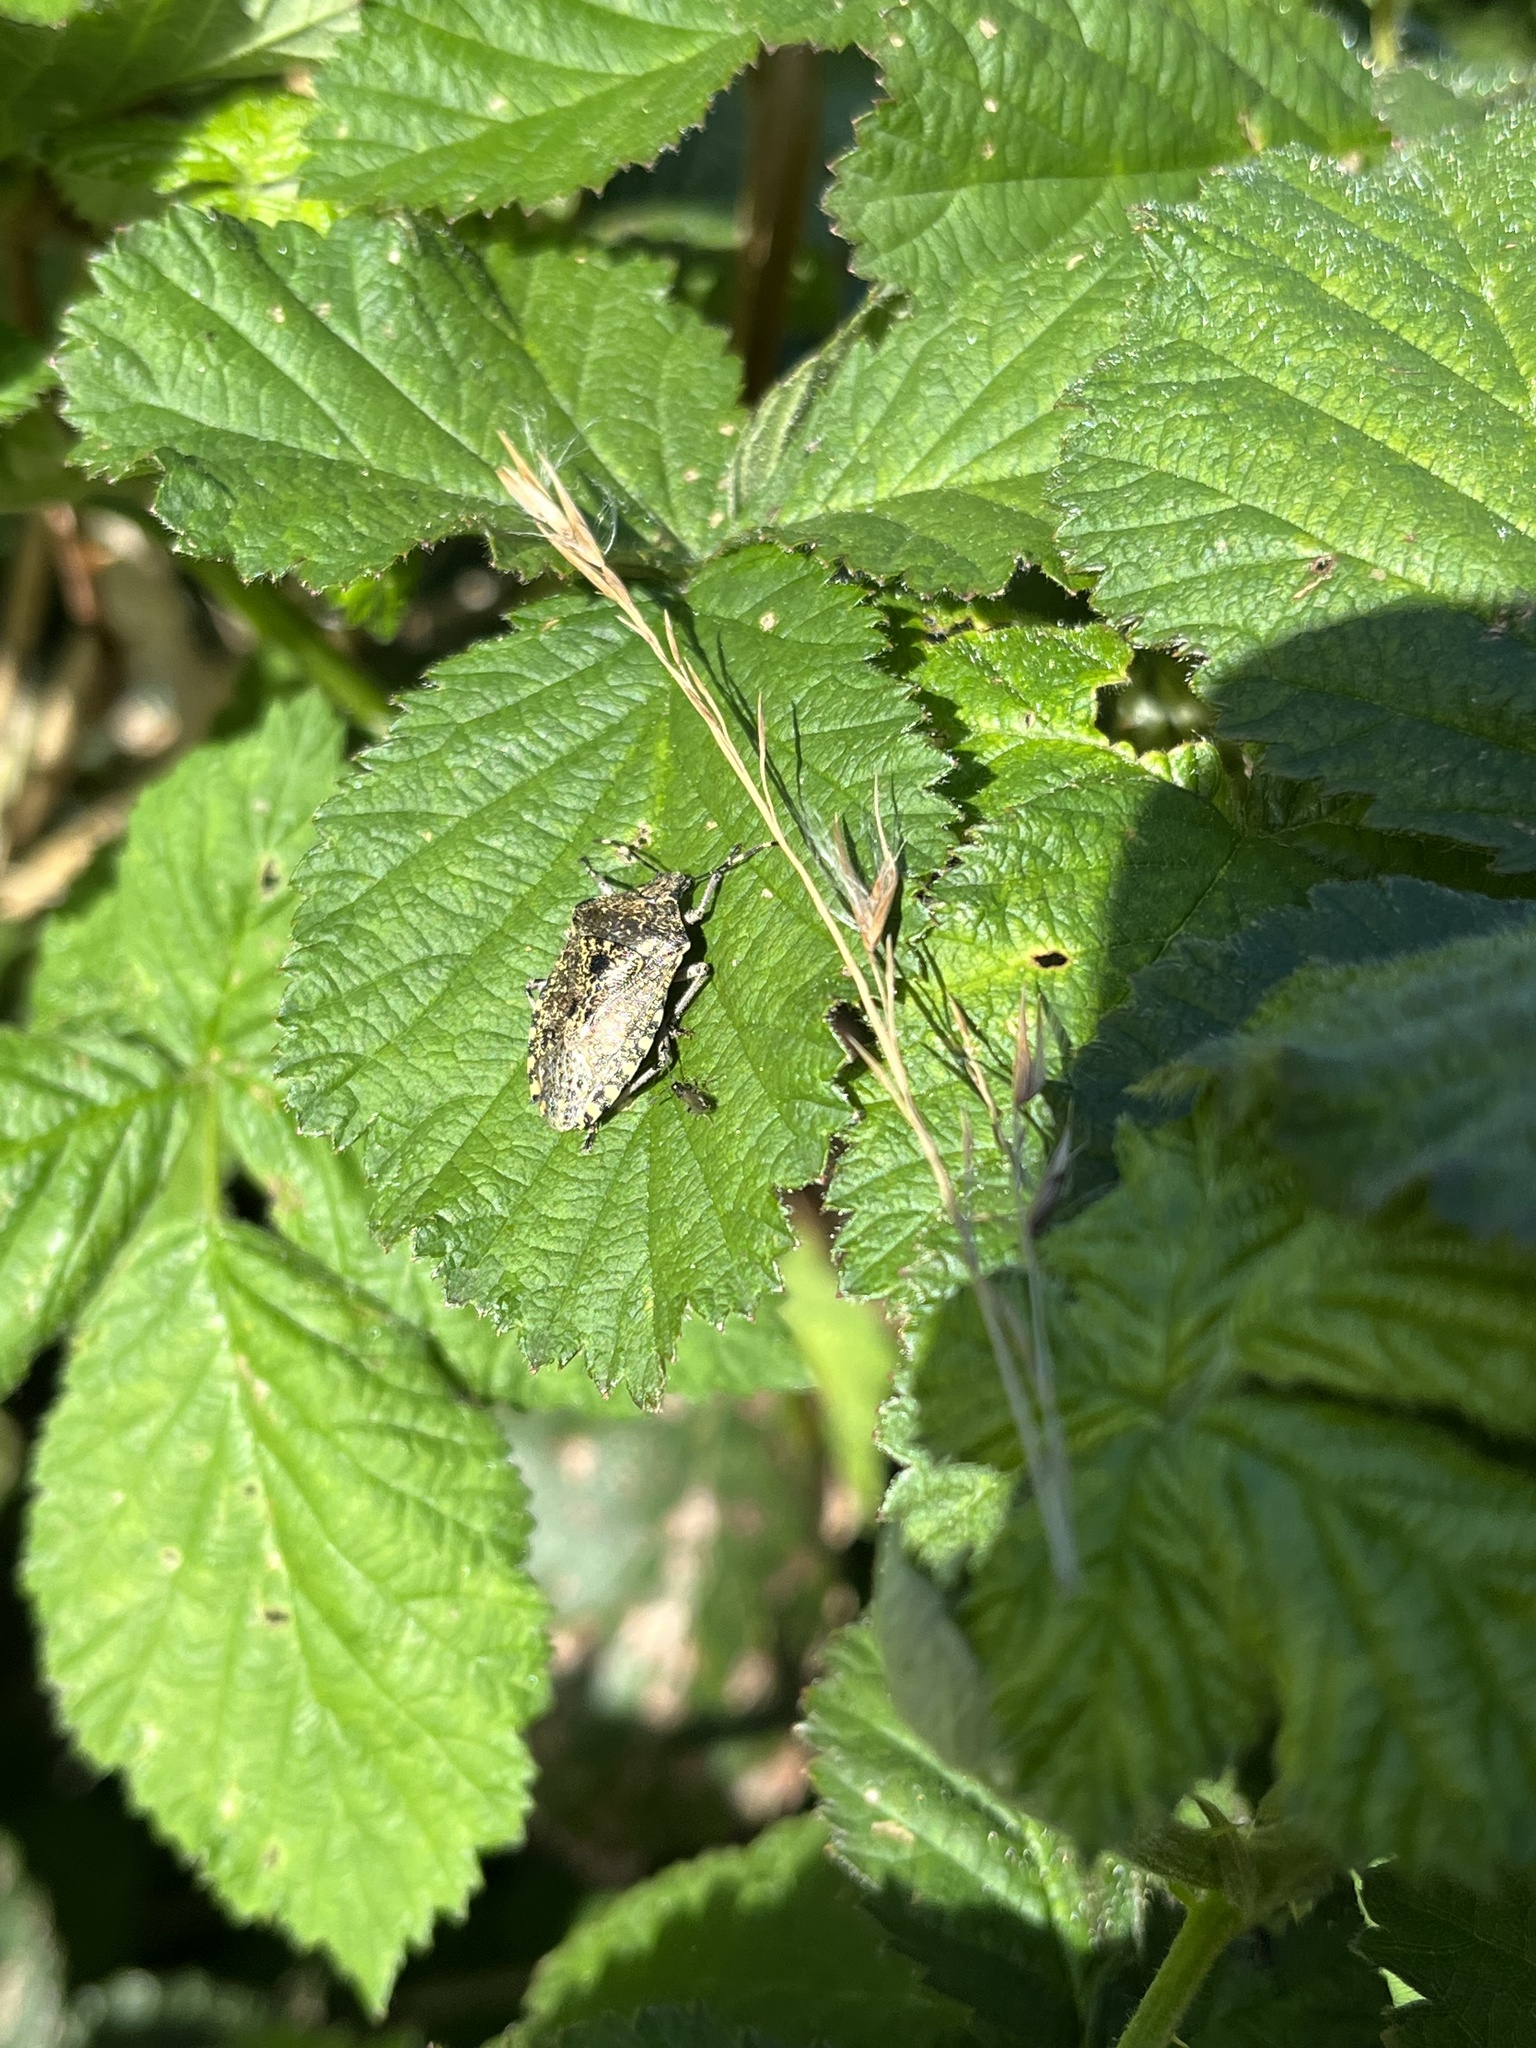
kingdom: Animalia
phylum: Arthropoda
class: Insecta
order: Hemiptera
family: Pentatomidae
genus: Rhaphigaster
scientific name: Rhaphigaster nebulosa
